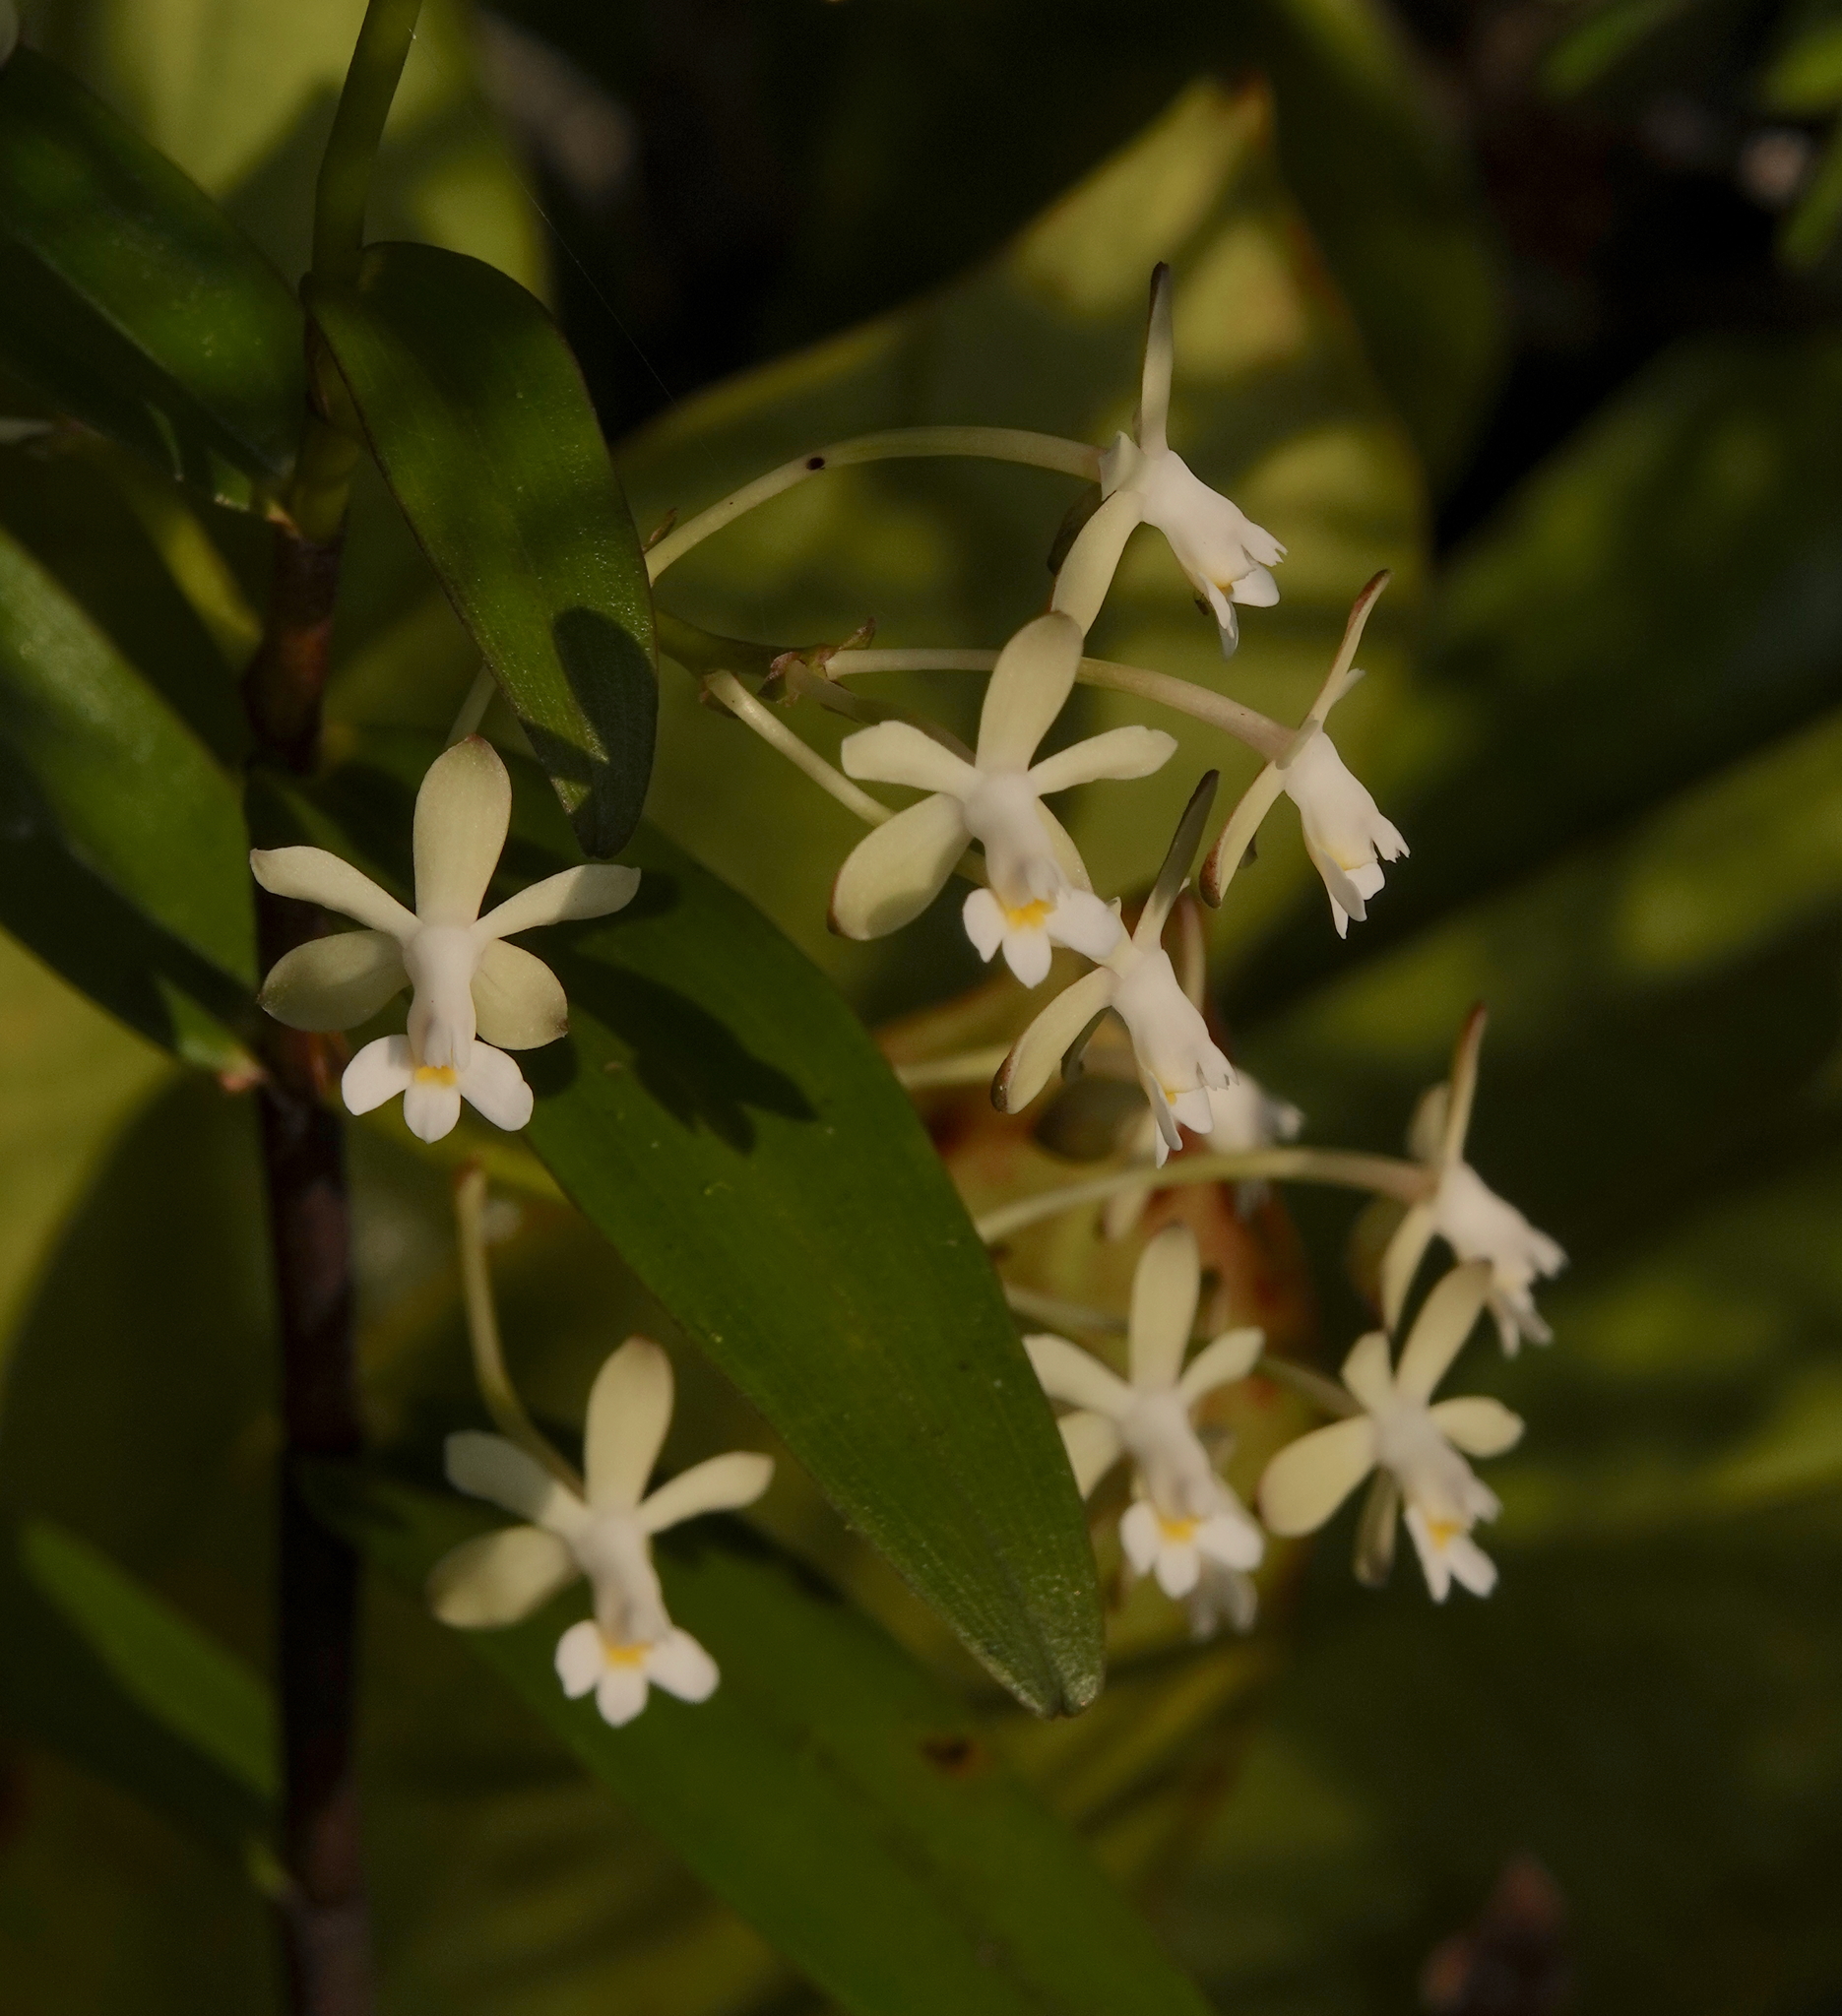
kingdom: Plantae
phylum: Tracheophyta
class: Liliopsida
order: Asparagales
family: Orchidaceae
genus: Epidendrum
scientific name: Epidendrum intermixtum
